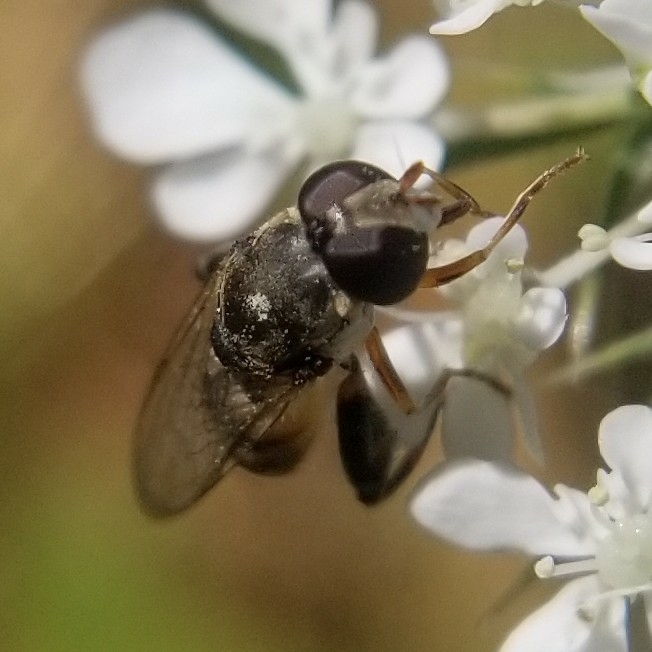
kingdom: Animalia
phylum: Arthropoda
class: Insecta
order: Diptera
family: Syrphidae
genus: Syritta
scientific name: Syritta pipiens
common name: Hover fly
